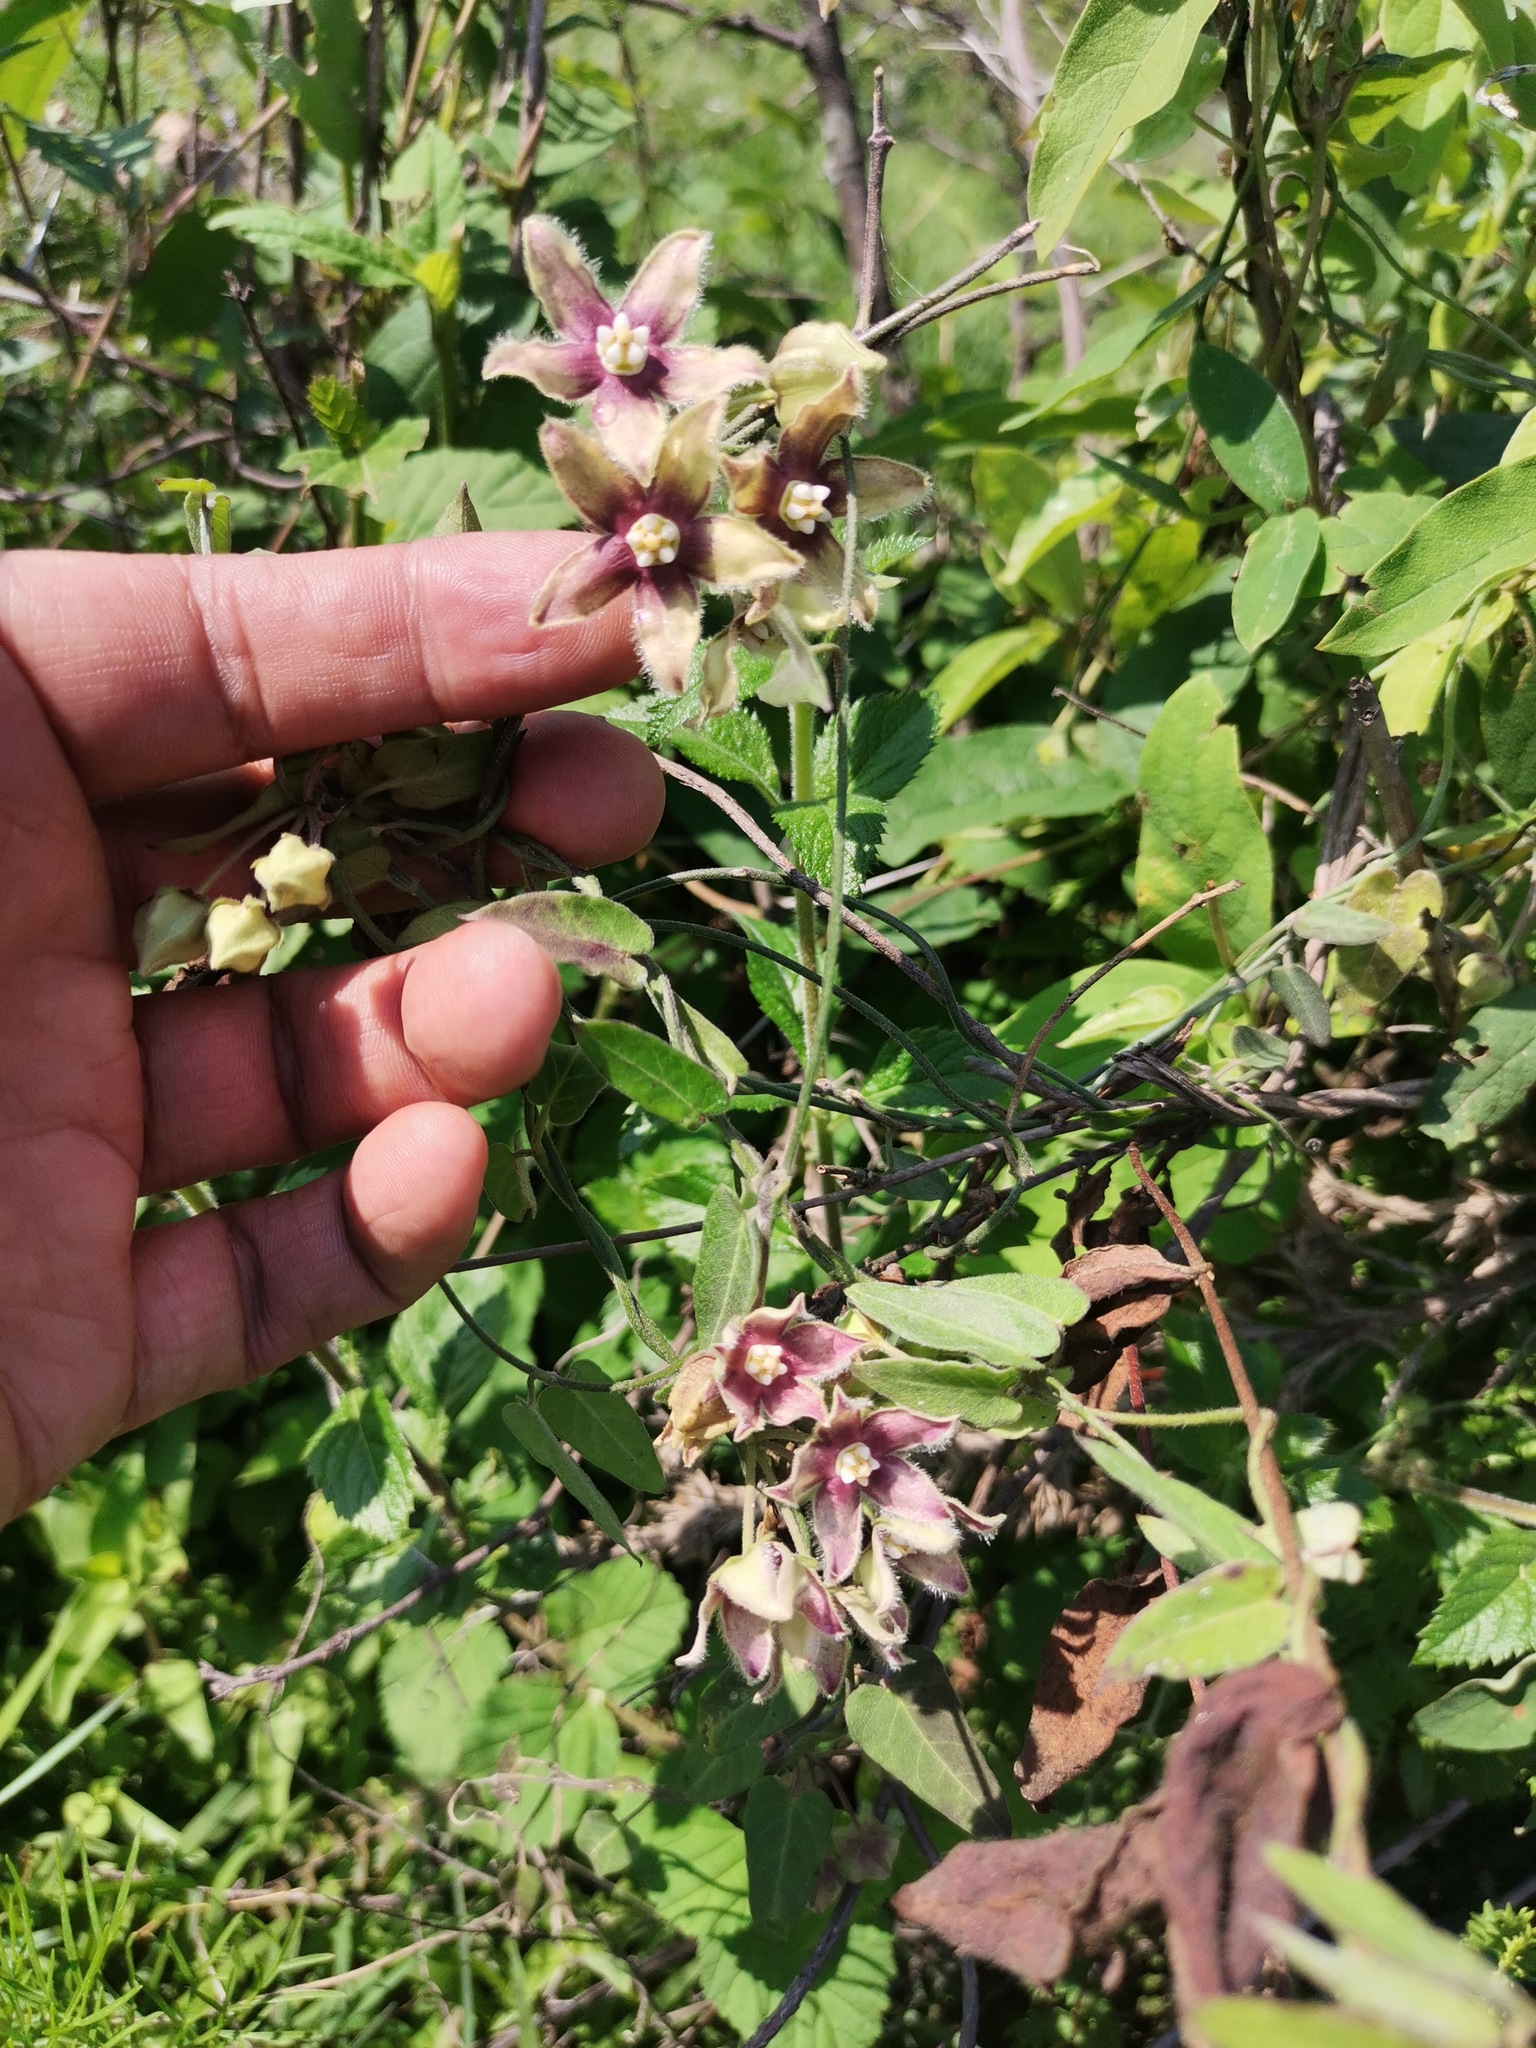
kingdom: Plantae
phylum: Tracheophyta
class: Magnoliopsida
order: Gentianales
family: Apocynaceae
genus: Funastrum
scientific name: Funastrum elegans
